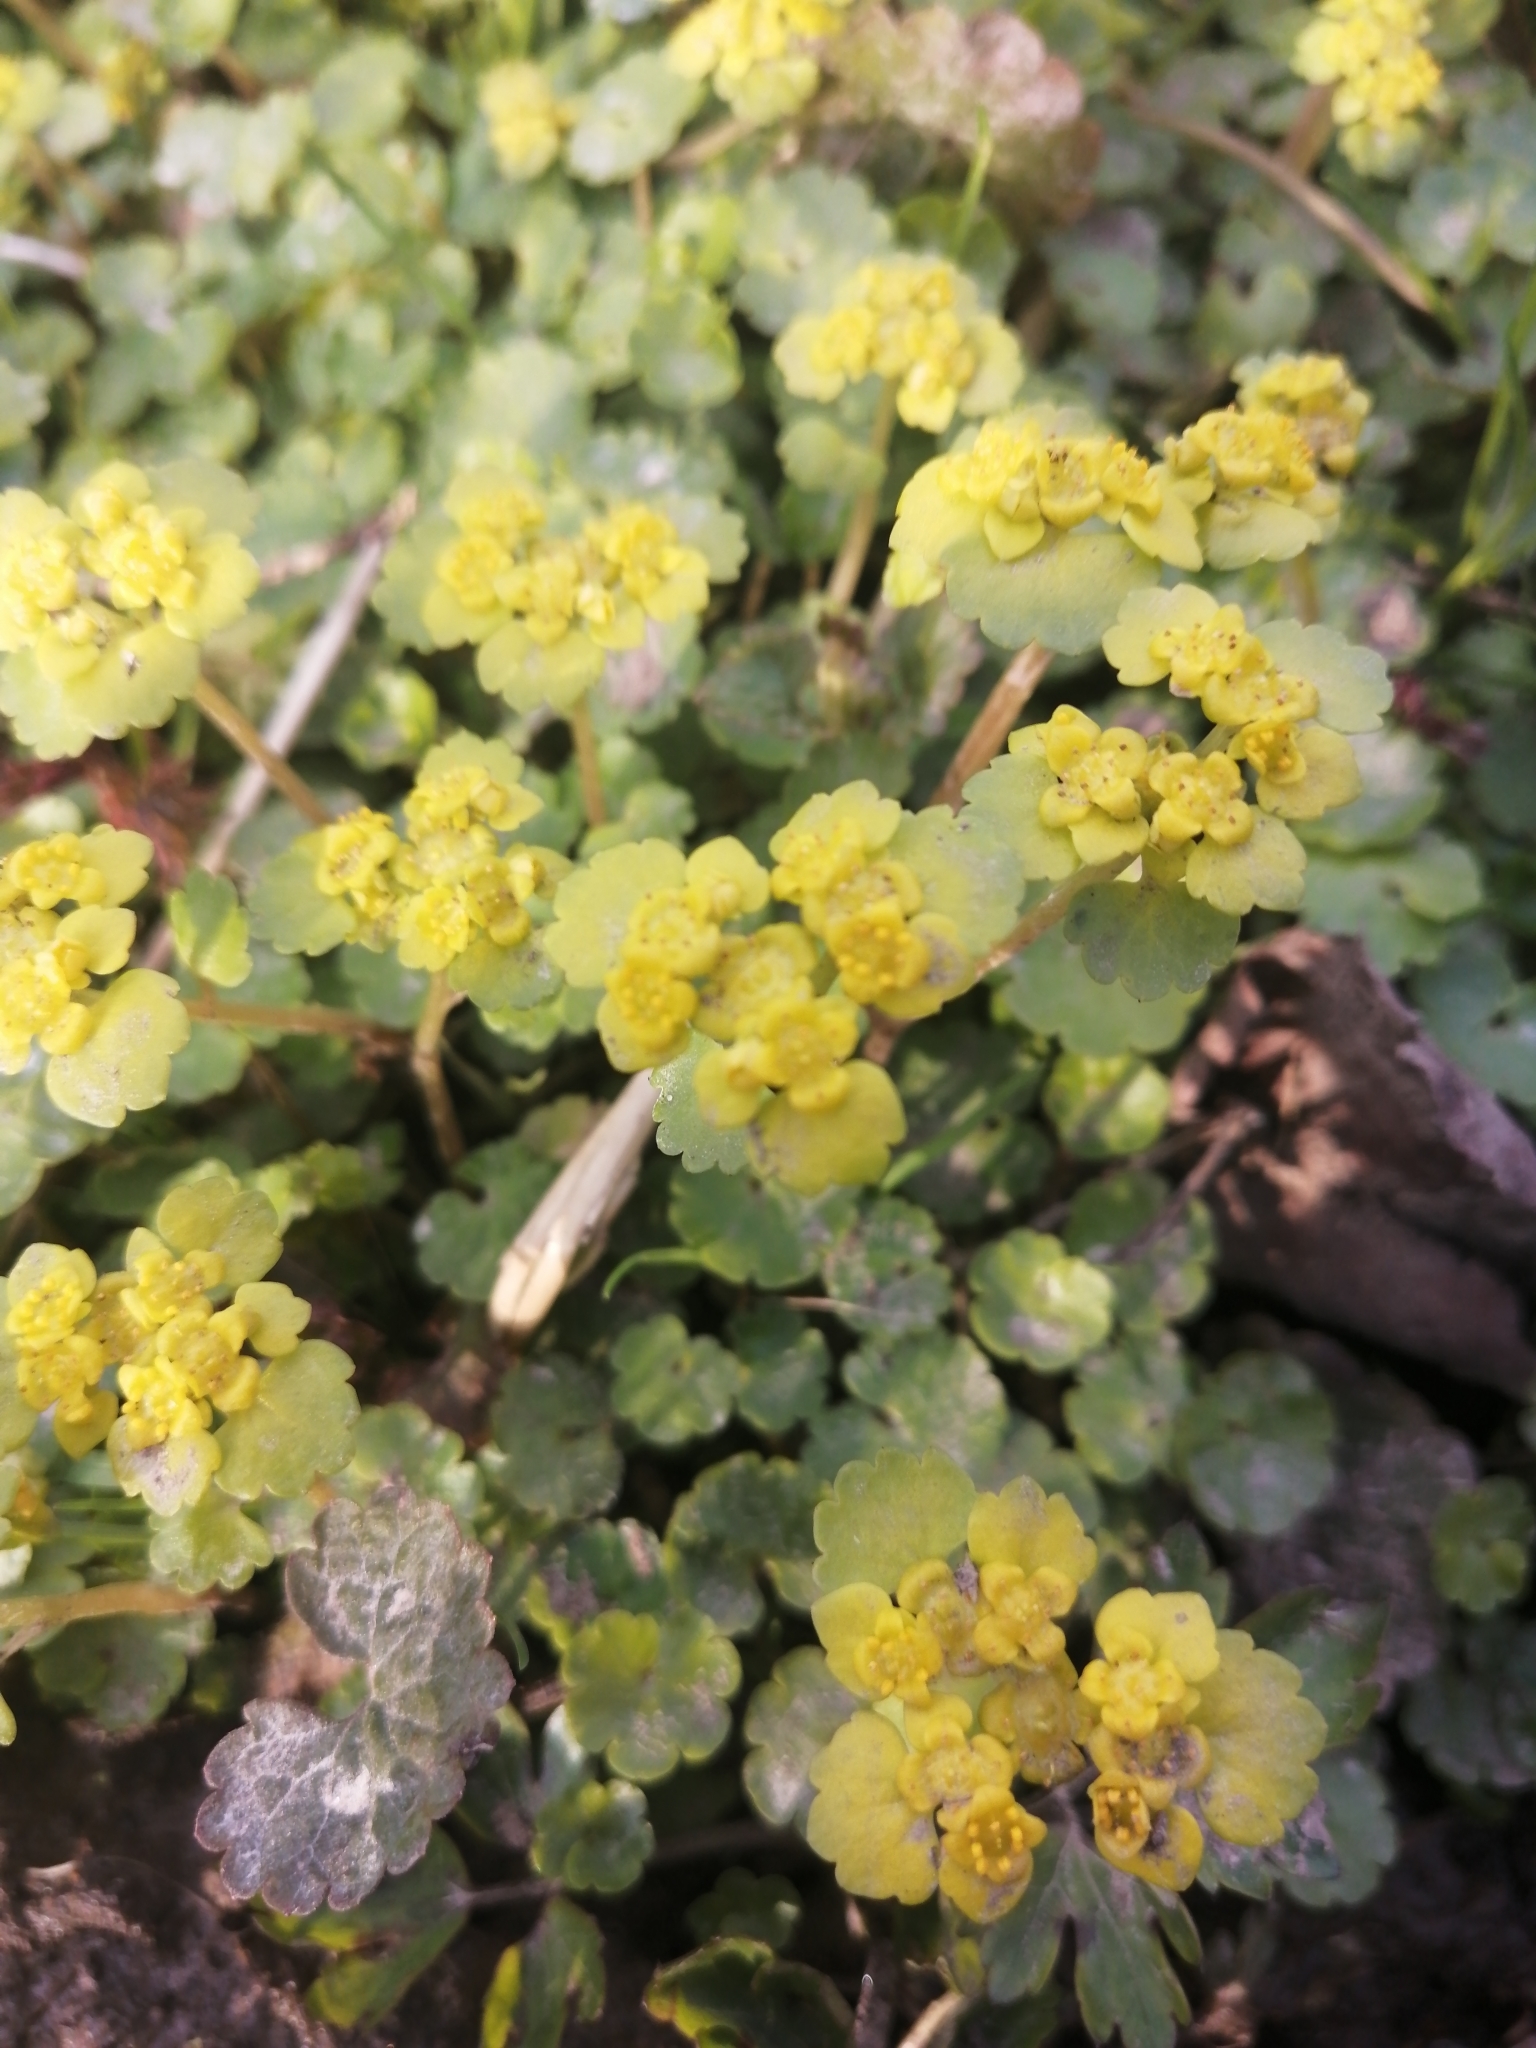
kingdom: Plantae
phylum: Tracheophyta
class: Magnoliopsida
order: Saxifragales
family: Saxifragaceae
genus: Chrysosplenium
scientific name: Chrysosplenium alternifolium
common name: Alternate-leaved golden-saxifrage
